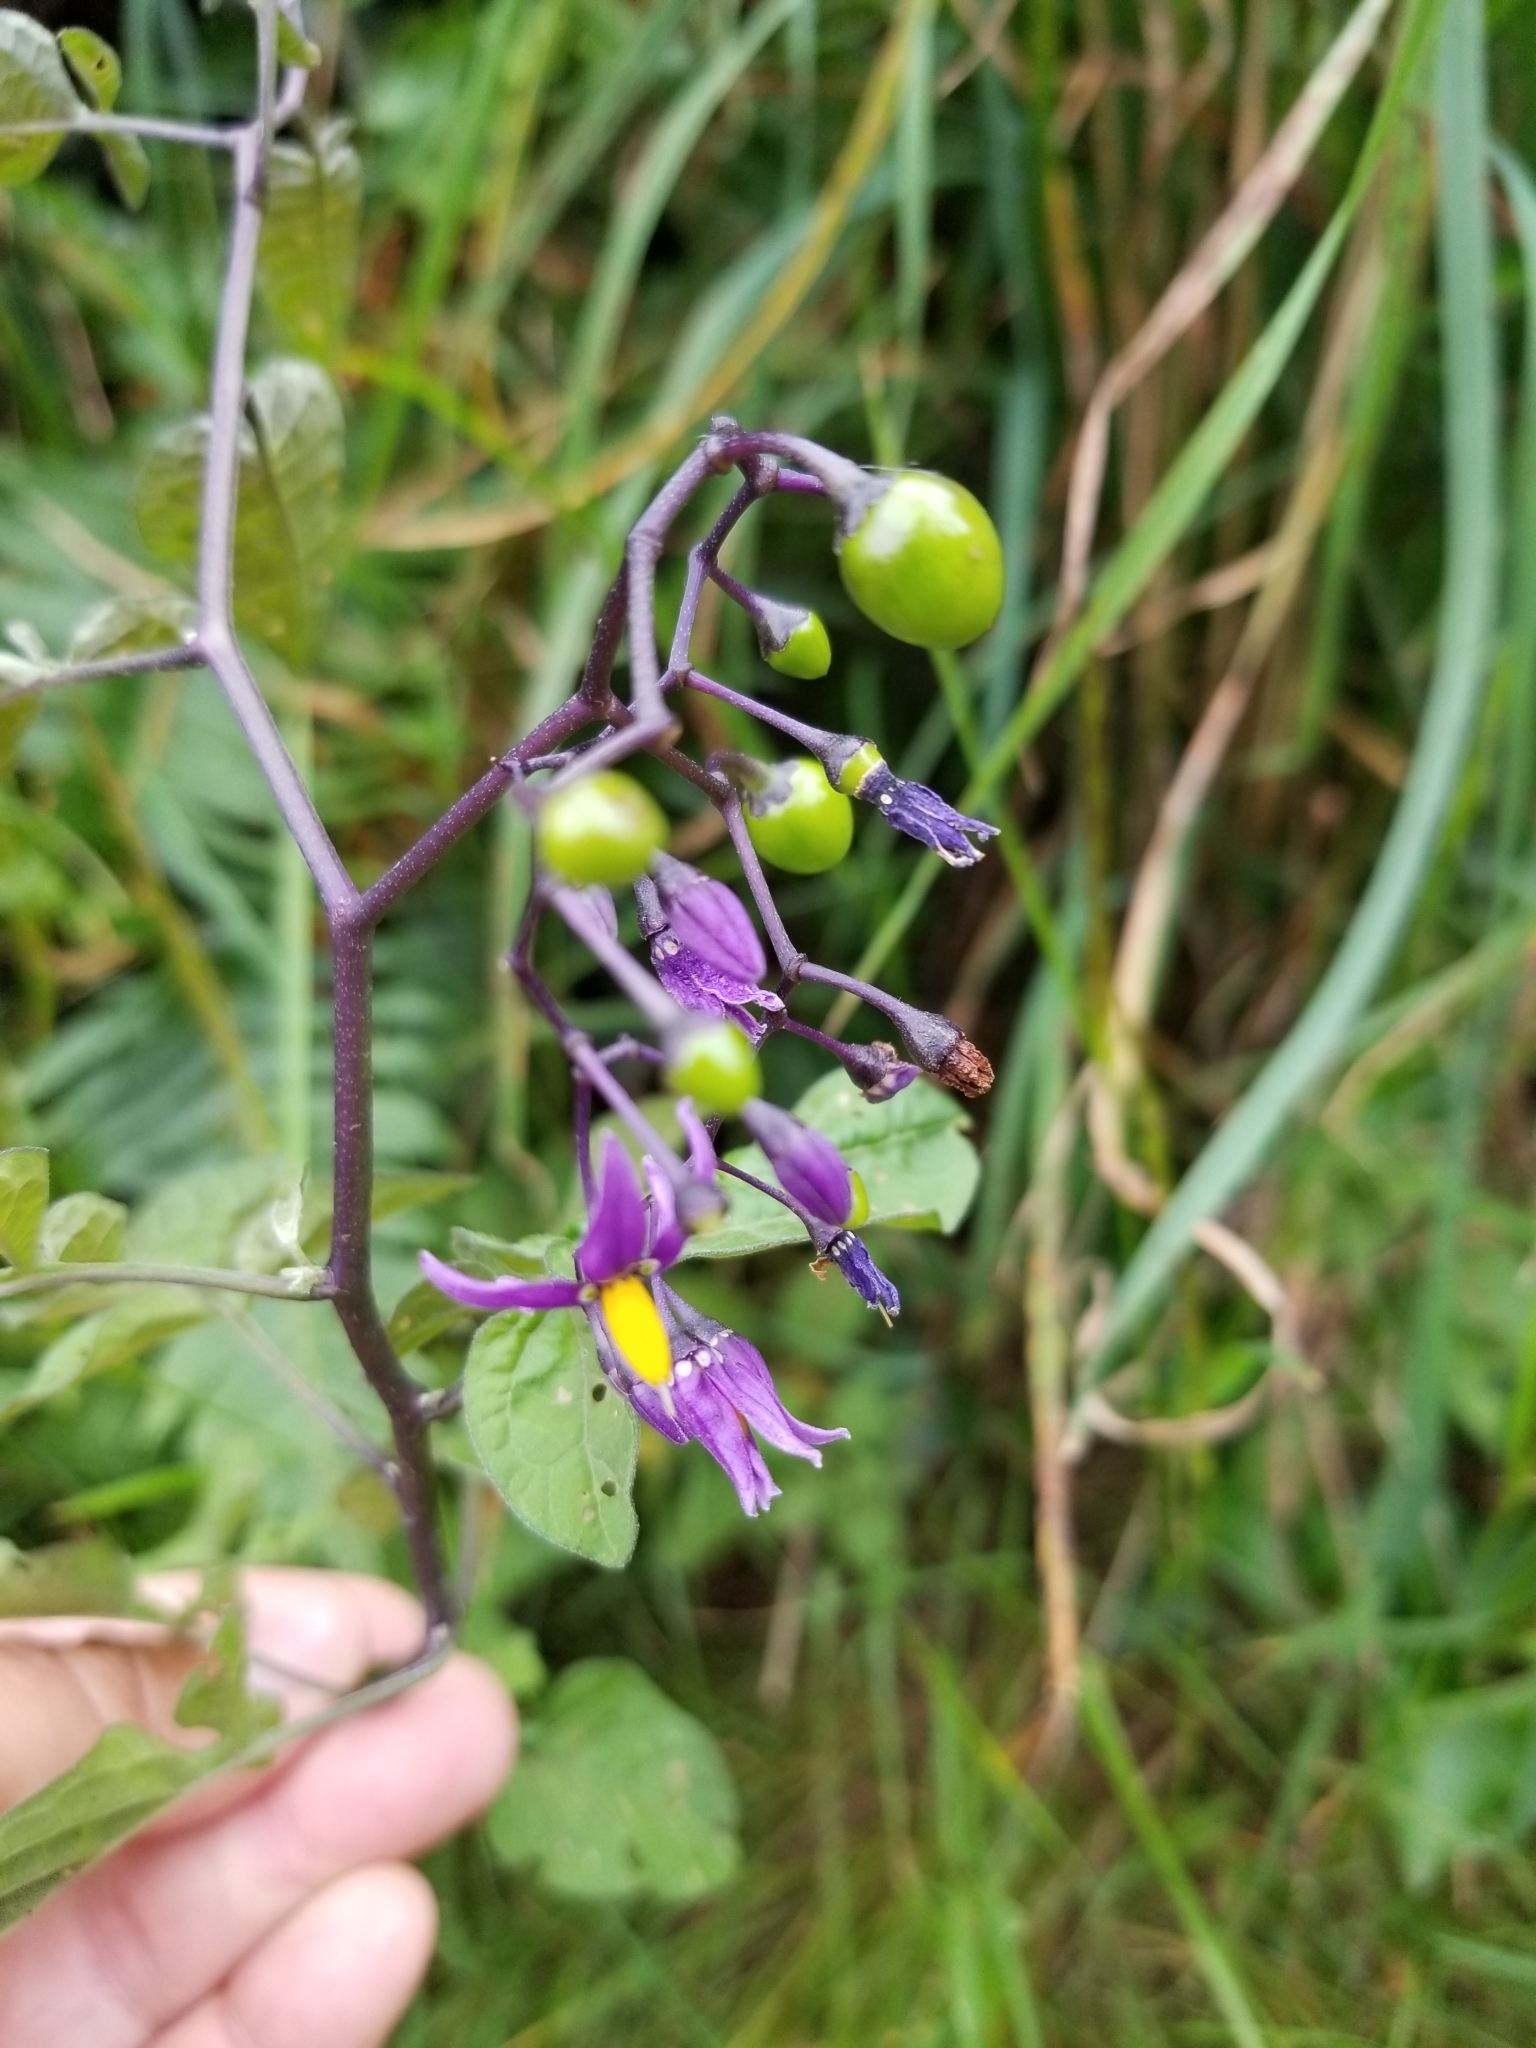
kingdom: Plantae
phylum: Tracheophyta
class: Magnoliopsida
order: Solanales
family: Solanaceae
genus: Solanum
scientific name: Solanum dulcamara
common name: Climbing nightshade
